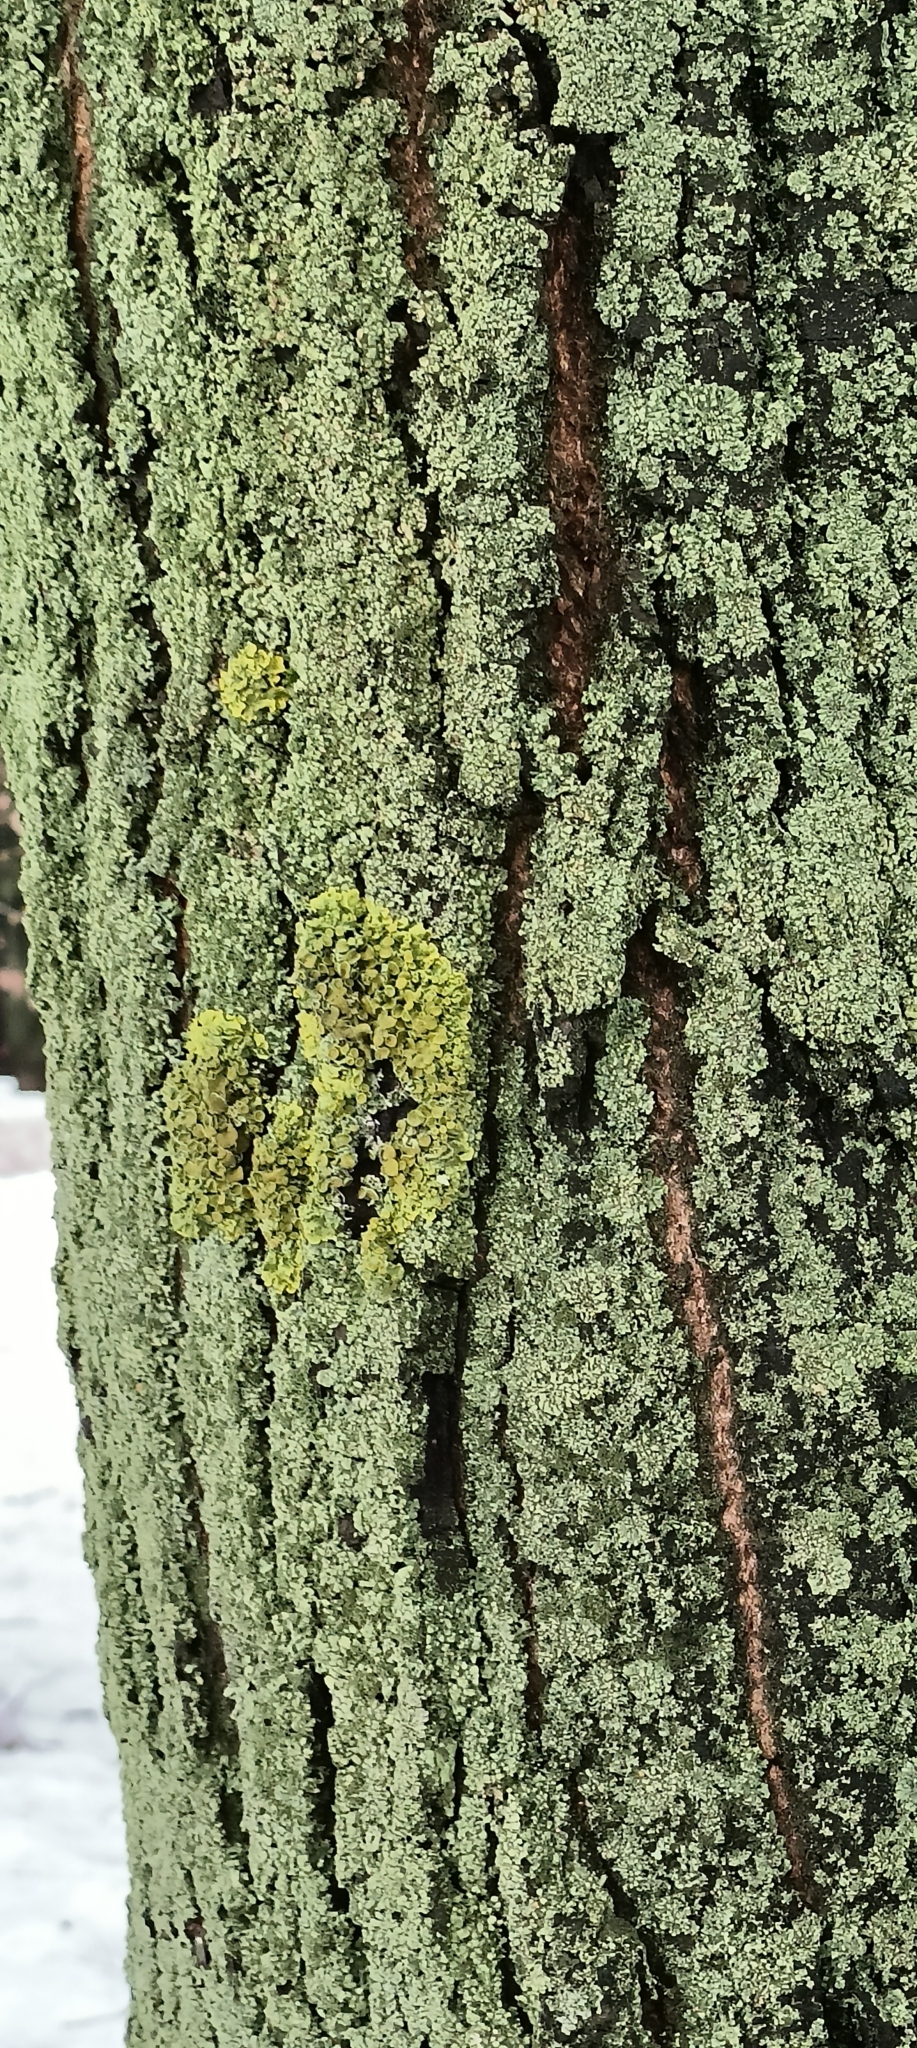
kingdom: Fungi
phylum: Ascomycota
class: Lecanoromycetes
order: Teloschistales
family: Teloschistaceae
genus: Xanthoria
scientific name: Xanthoria parietina
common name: Common orange lichen
